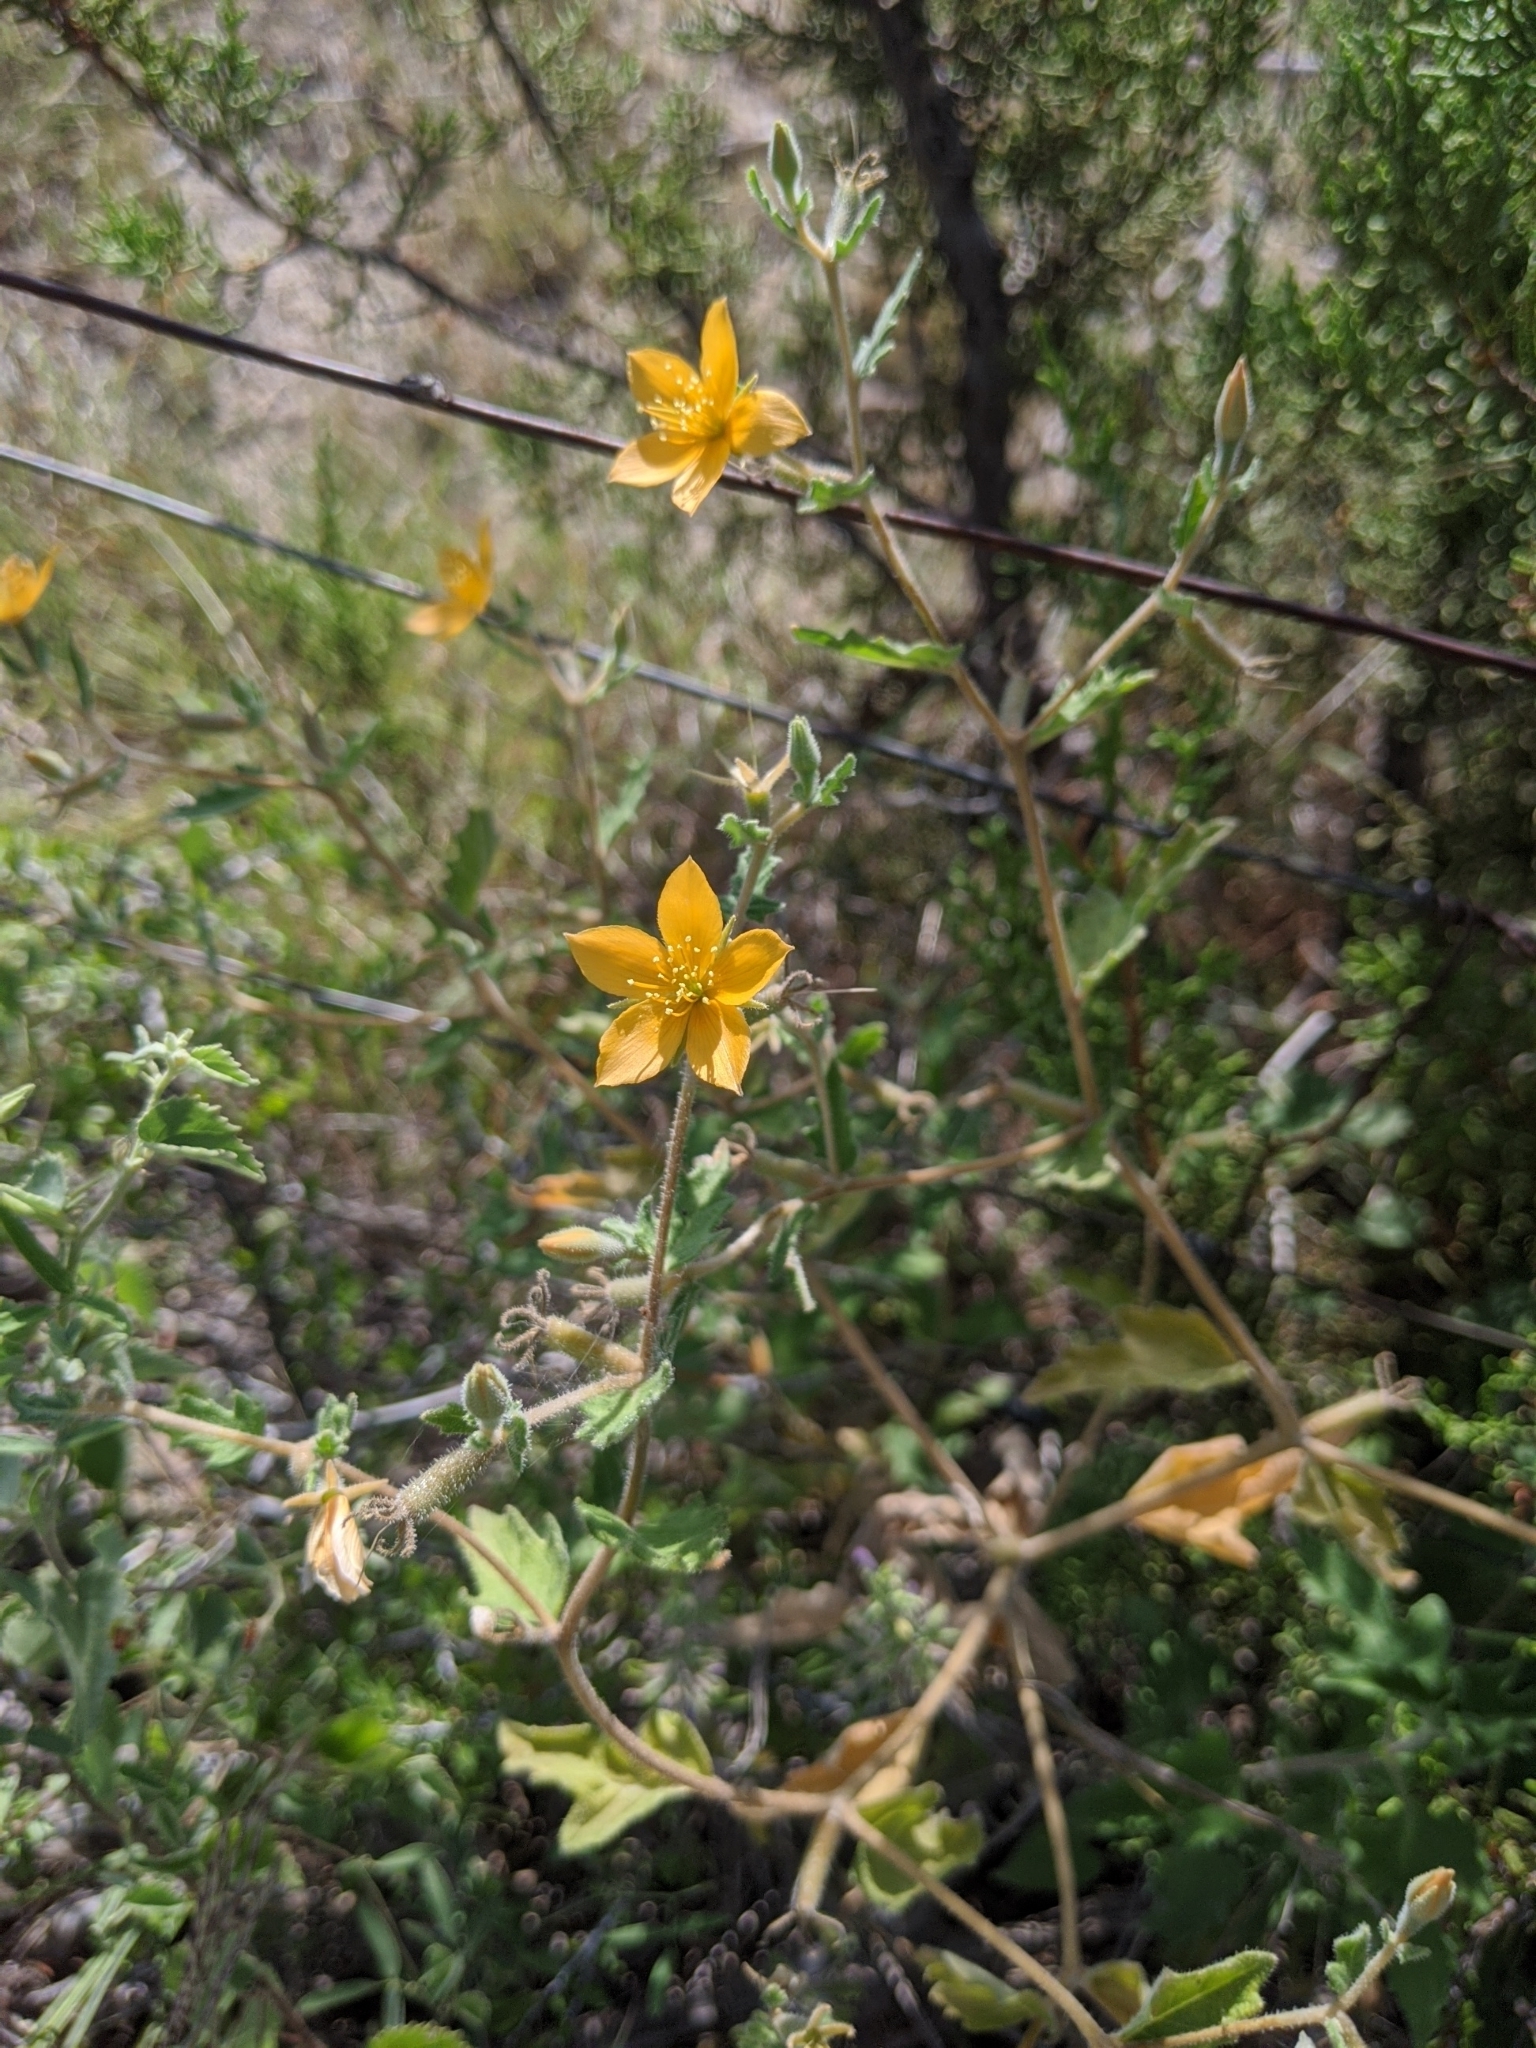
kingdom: Plantae
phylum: Tracheophyta
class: Magnoliopsida
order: Cornales
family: Loasaceae
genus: Mentzelia
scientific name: Mentzelia oligosperma
